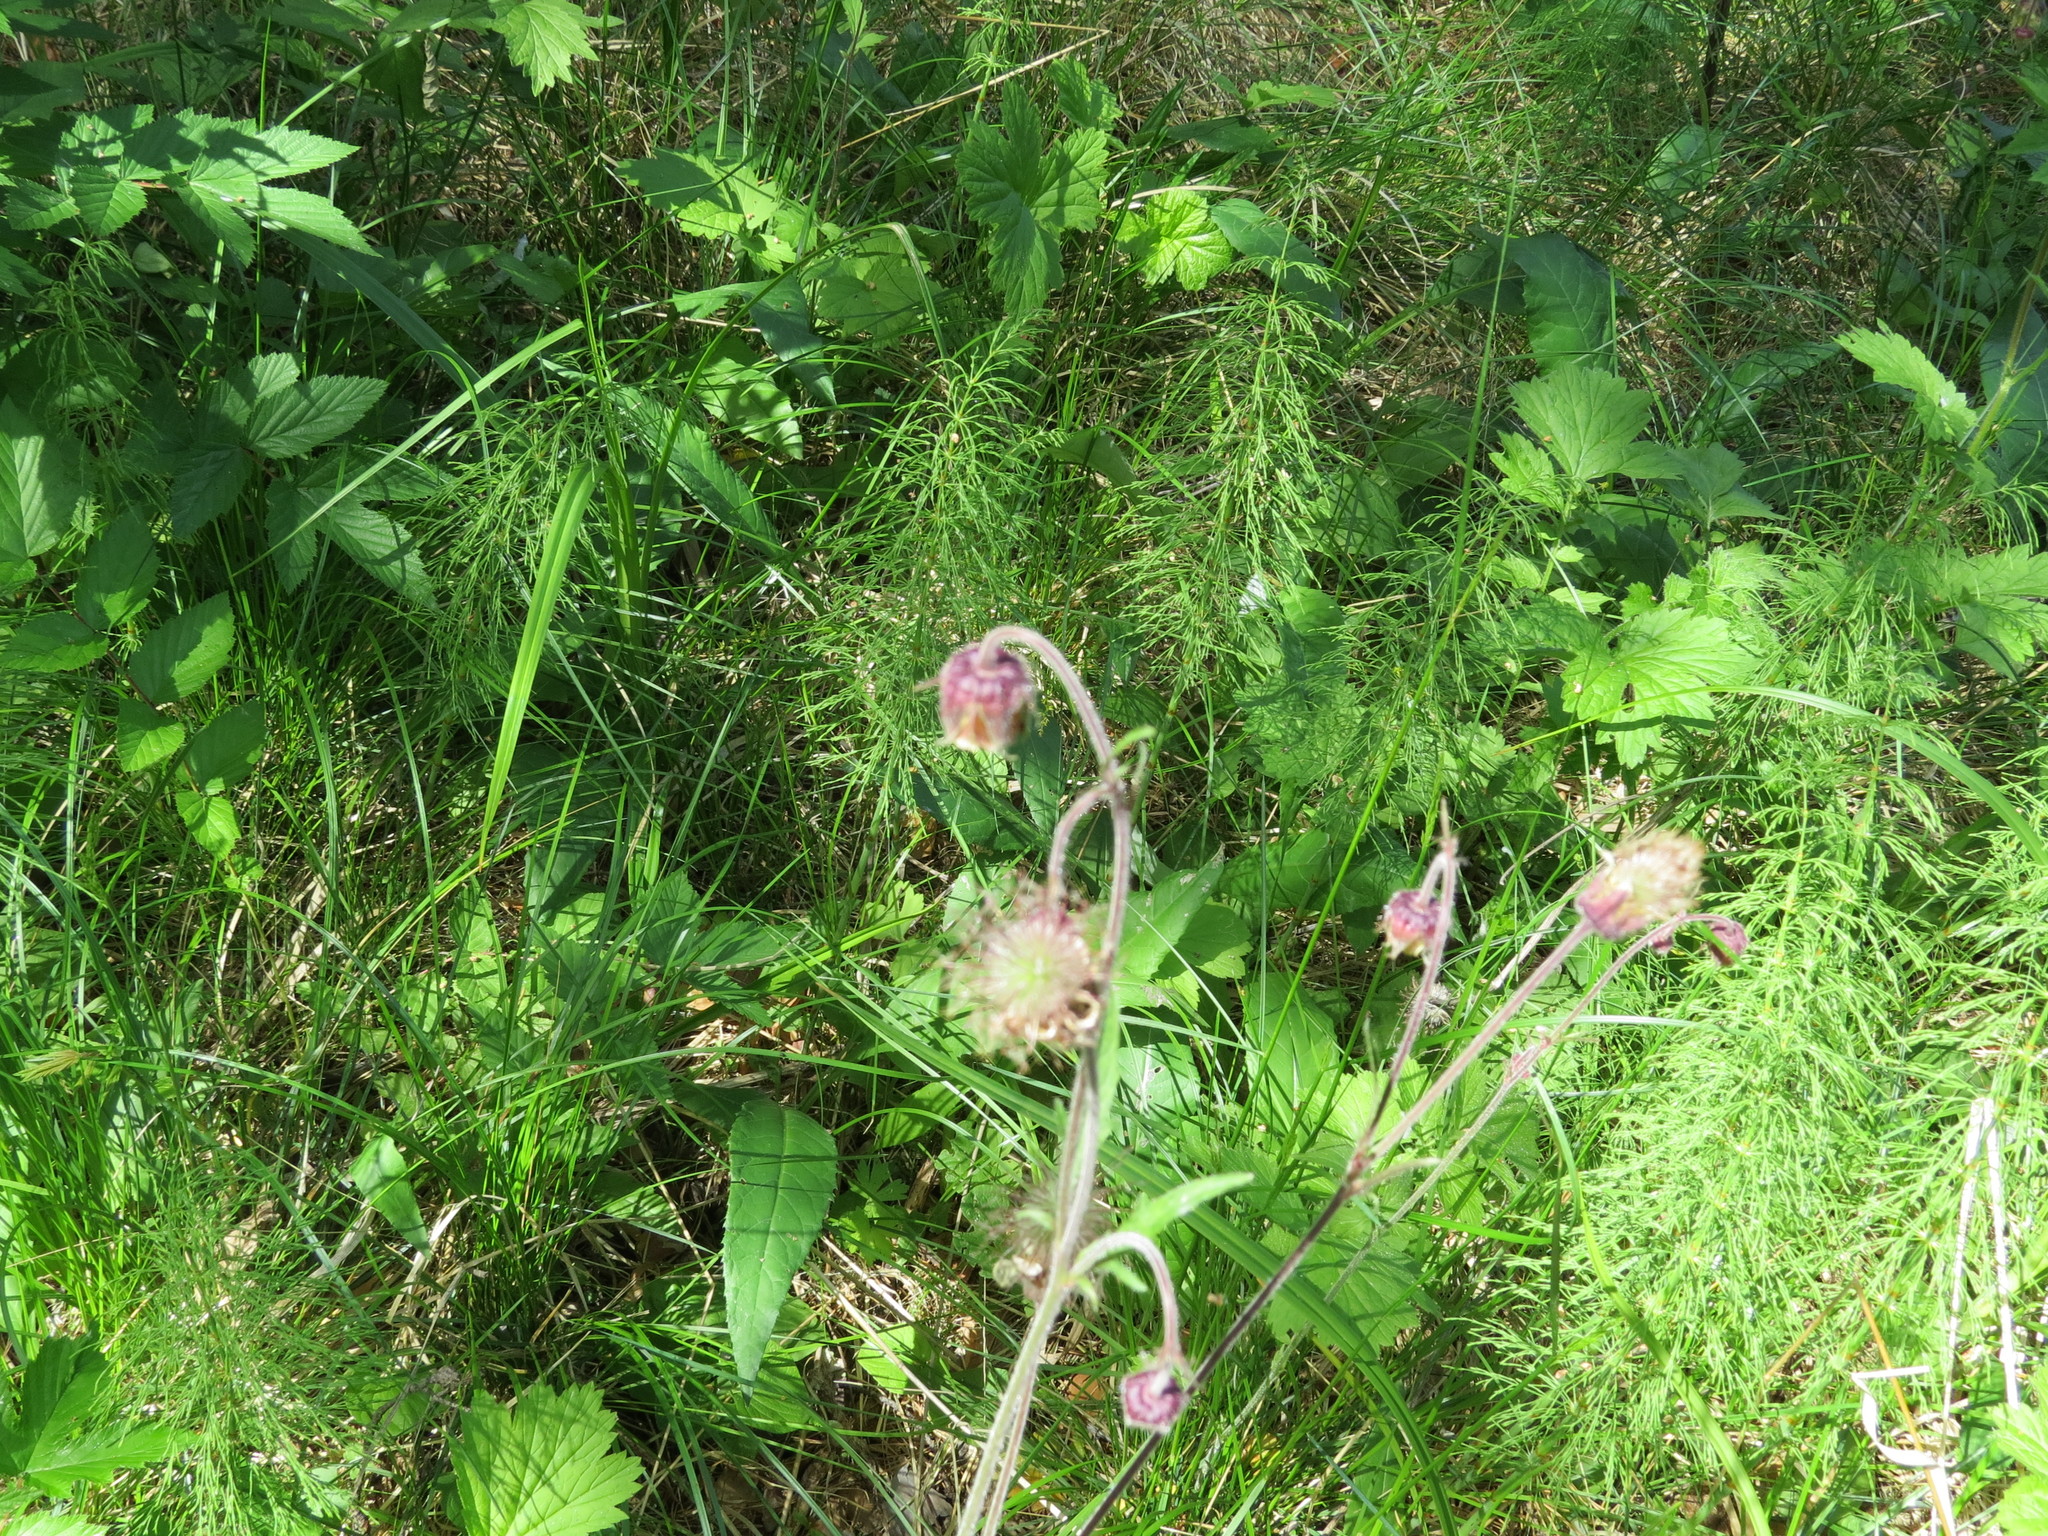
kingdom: Plantae
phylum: Tracheophyta
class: Magnoliopsida
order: Rosales
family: Rosaceae
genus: Geum
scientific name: Geum rivale
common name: Water avens
